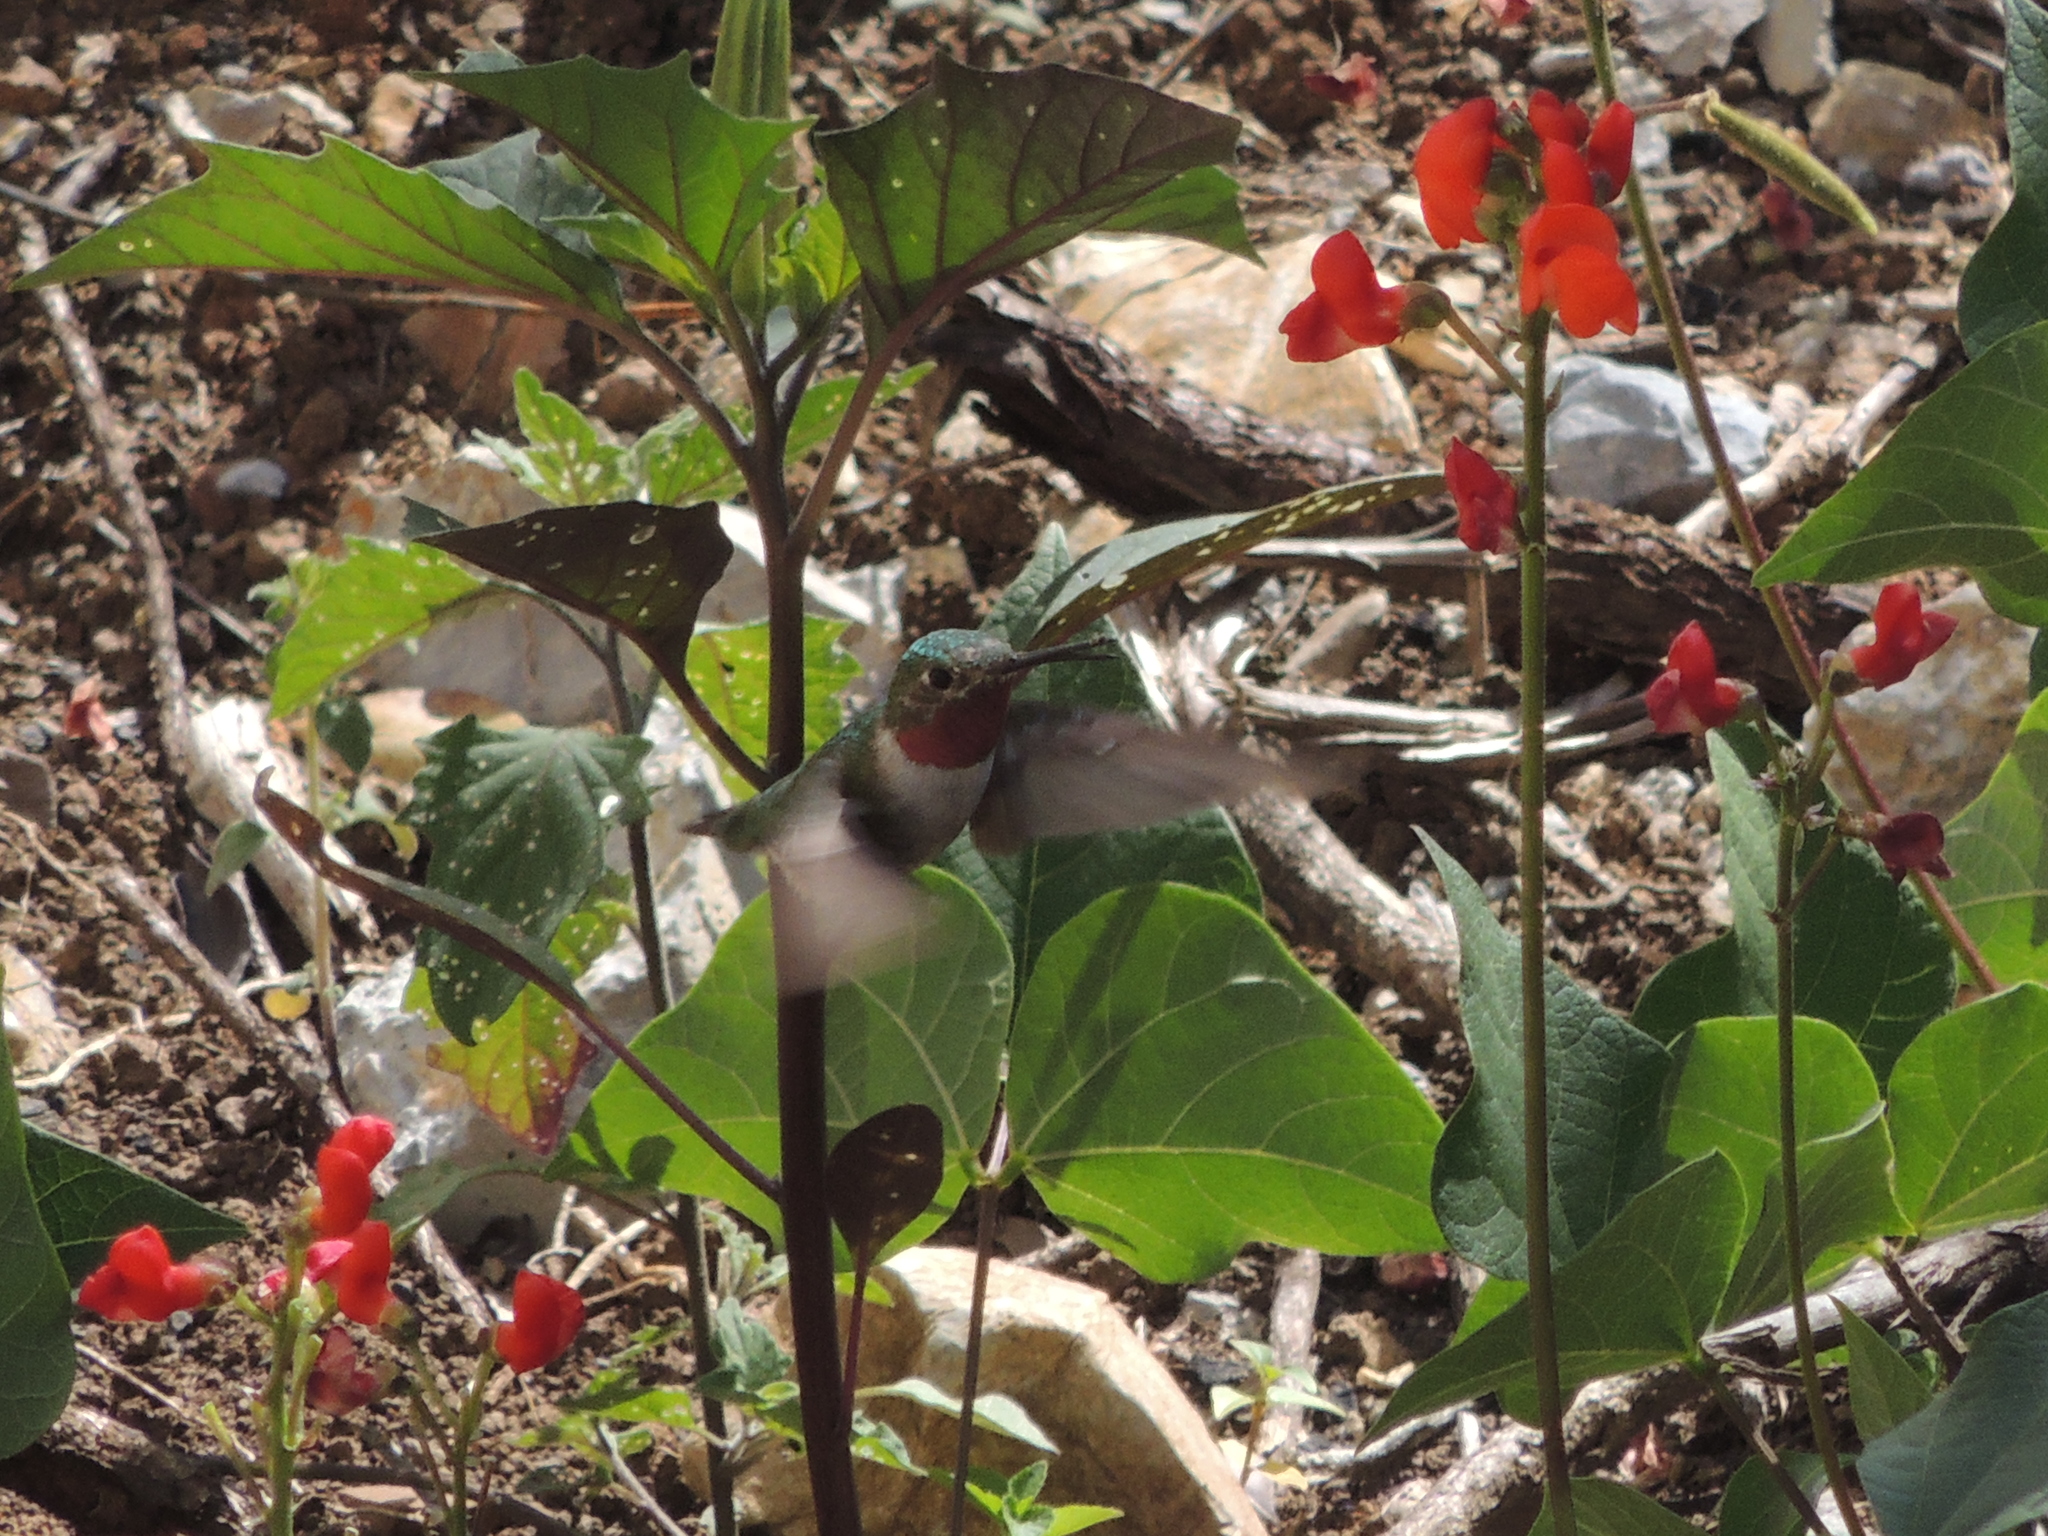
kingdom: Animalia
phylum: Chordata
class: Aves
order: Apodiformes
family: Trochilidae
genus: Archilochus
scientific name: Archilochus colubris
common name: Ruby-throated hummingbird
